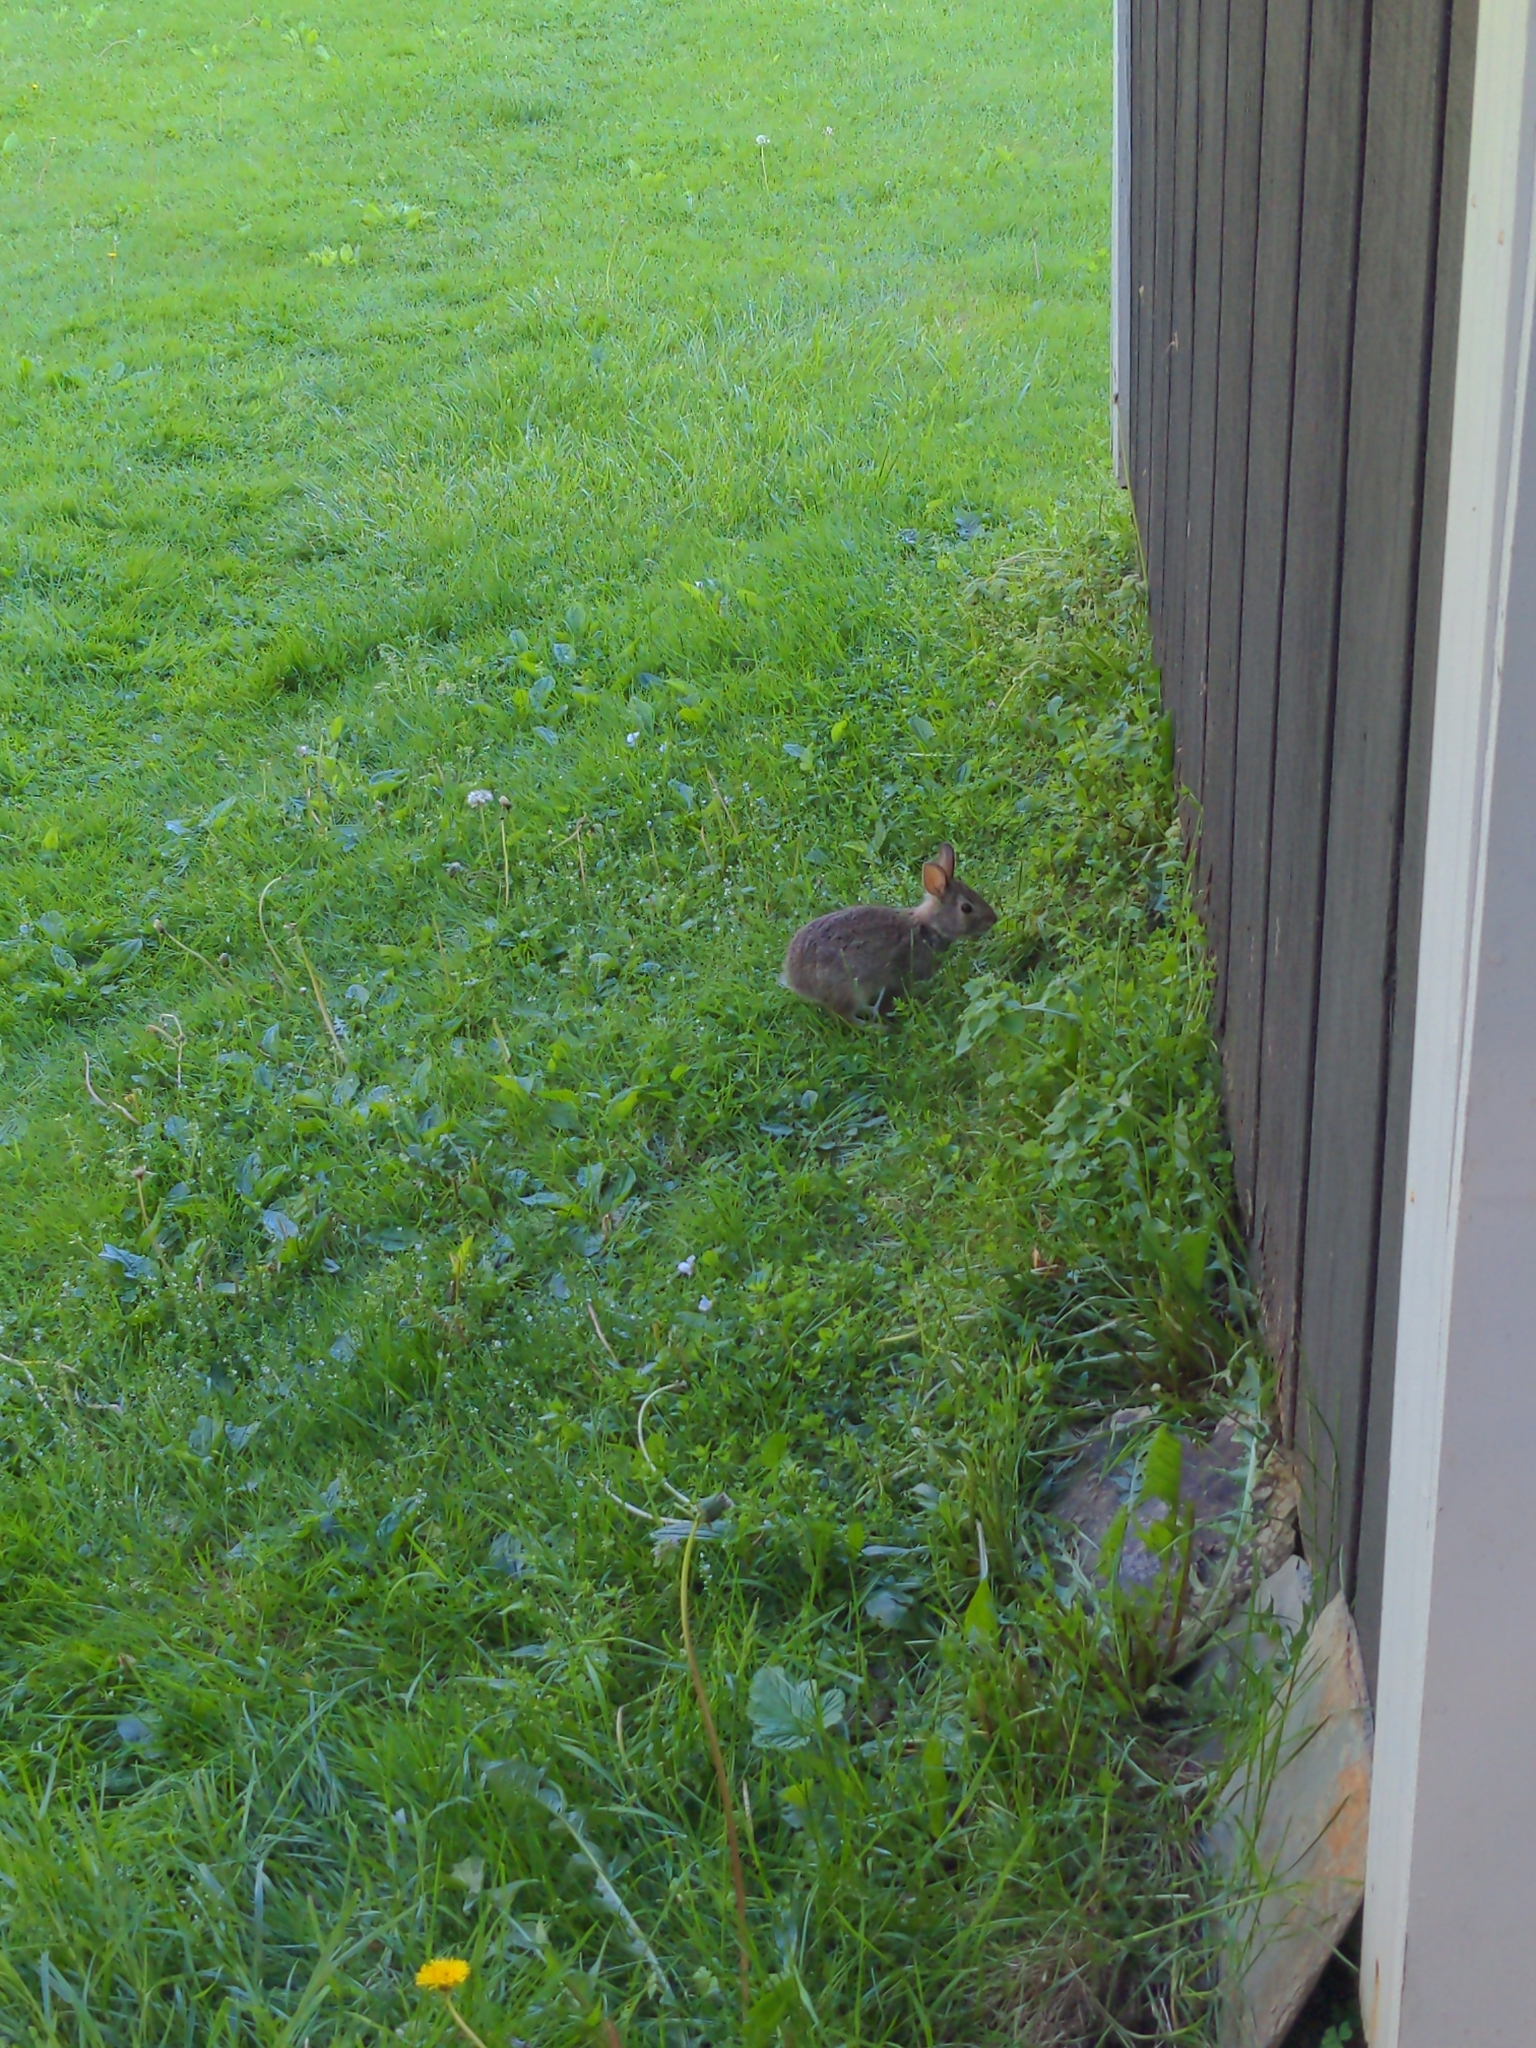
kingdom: Animalia
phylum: Chordata
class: Mammalia
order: Lagomorpha
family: Leporidae
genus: Sylvilagus
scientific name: Sylvilagus floridanus
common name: Eastern cottontail
